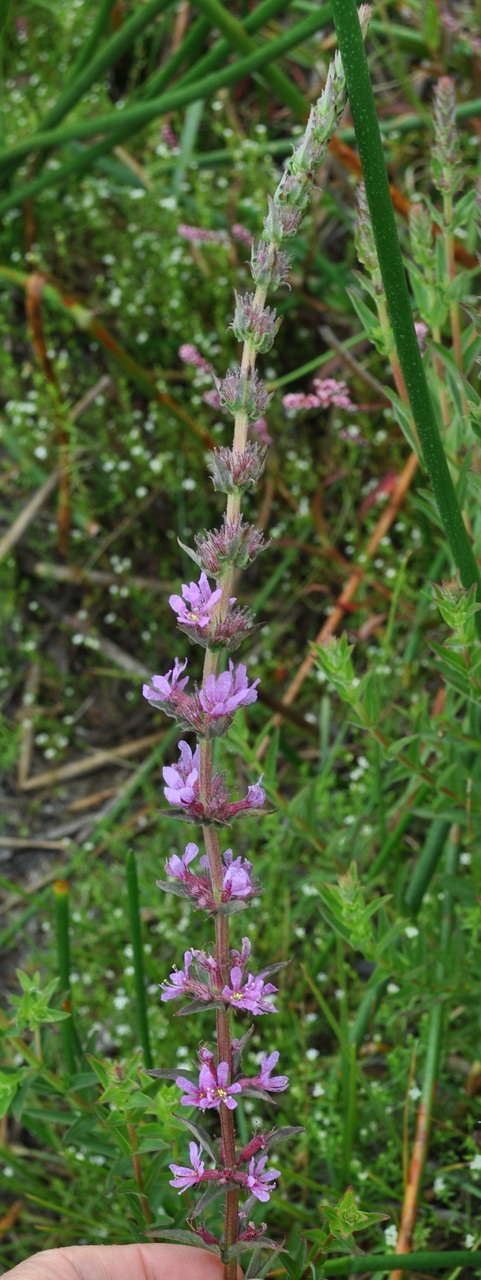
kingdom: Plantae
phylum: Tracheophyta
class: Magnoliopsida
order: Myrtales
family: Lythraceae
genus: Lythrum
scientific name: Lythrum salicaria
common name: Purple loosestrife
